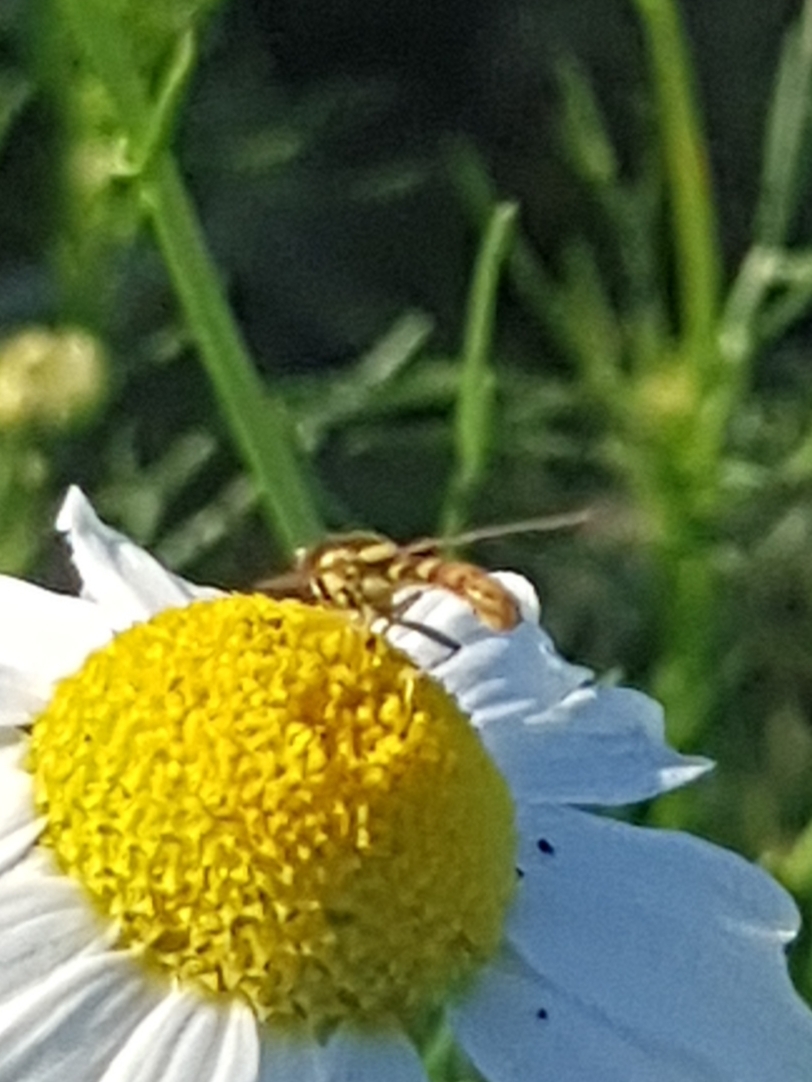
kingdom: Animalia
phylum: Arthropoda
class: Insecta
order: Diptera
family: Syrphidae
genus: Sphaerophoria
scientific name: Sphaerophoria scripta
